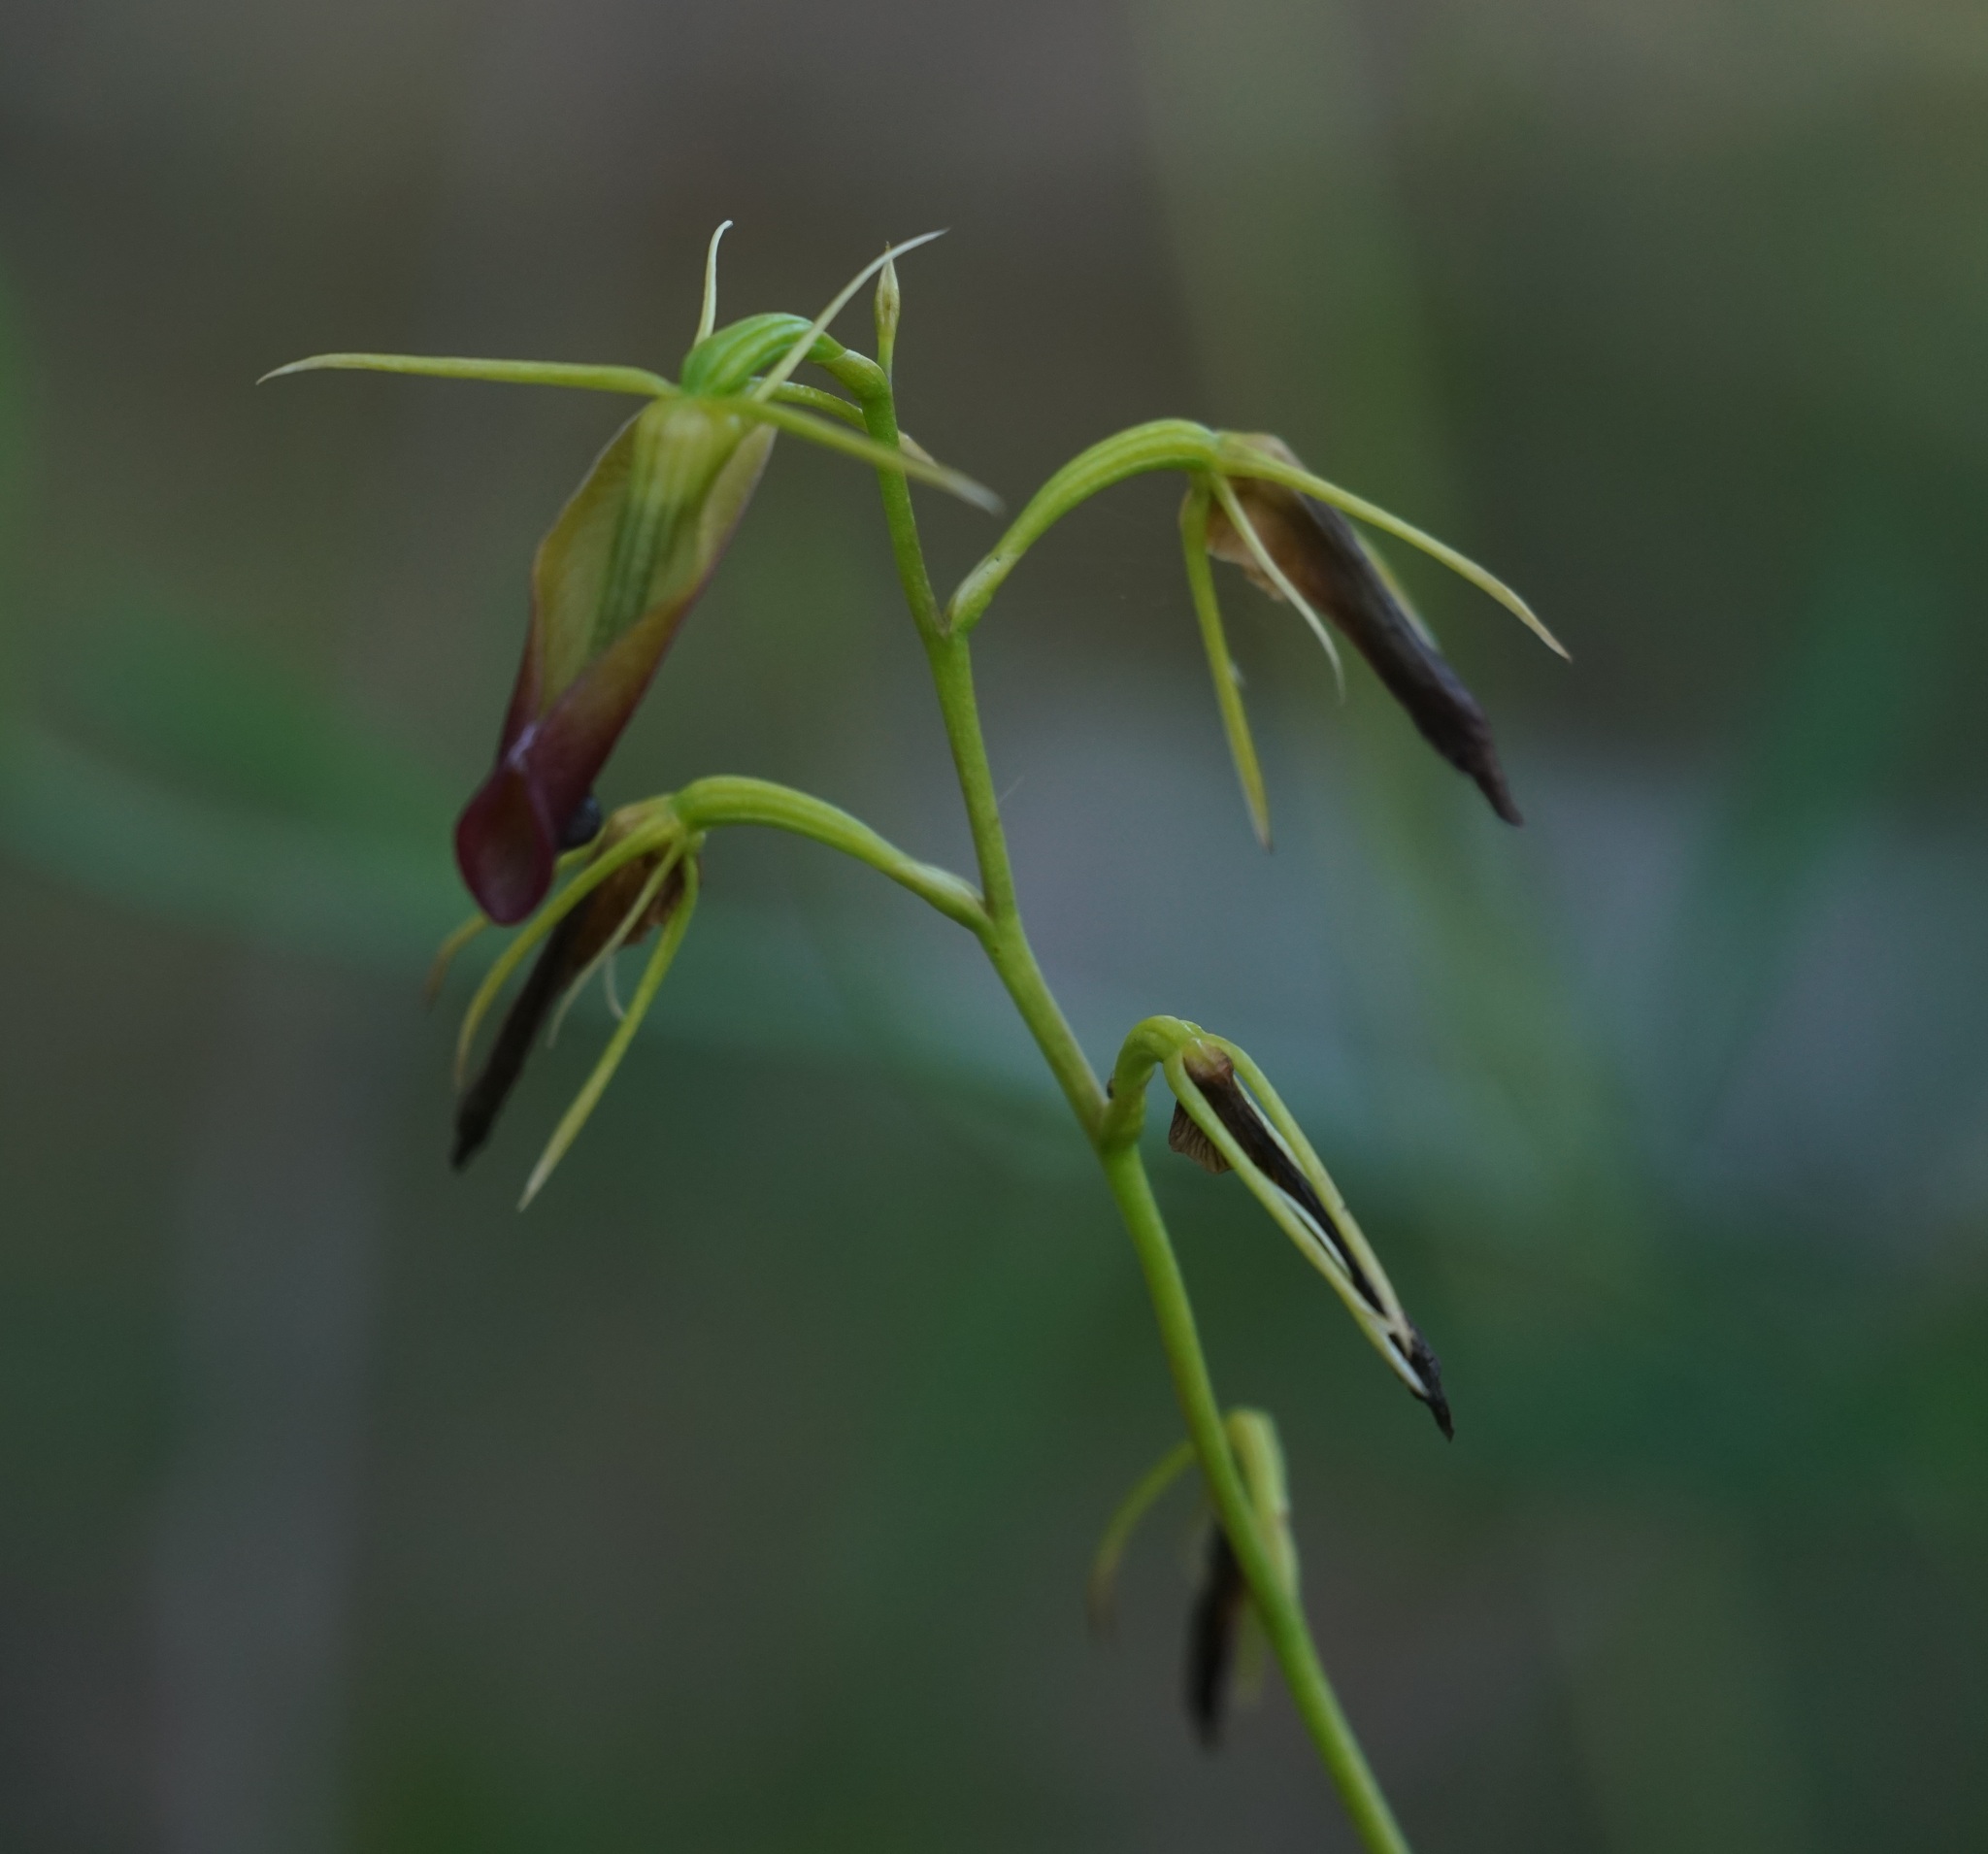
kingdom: Plantae
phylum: Tracheophyta
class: Liliopsida
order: Asparagales
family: Orchidaceae
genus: Cryptostylis
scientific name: Cryptostylis subulata
